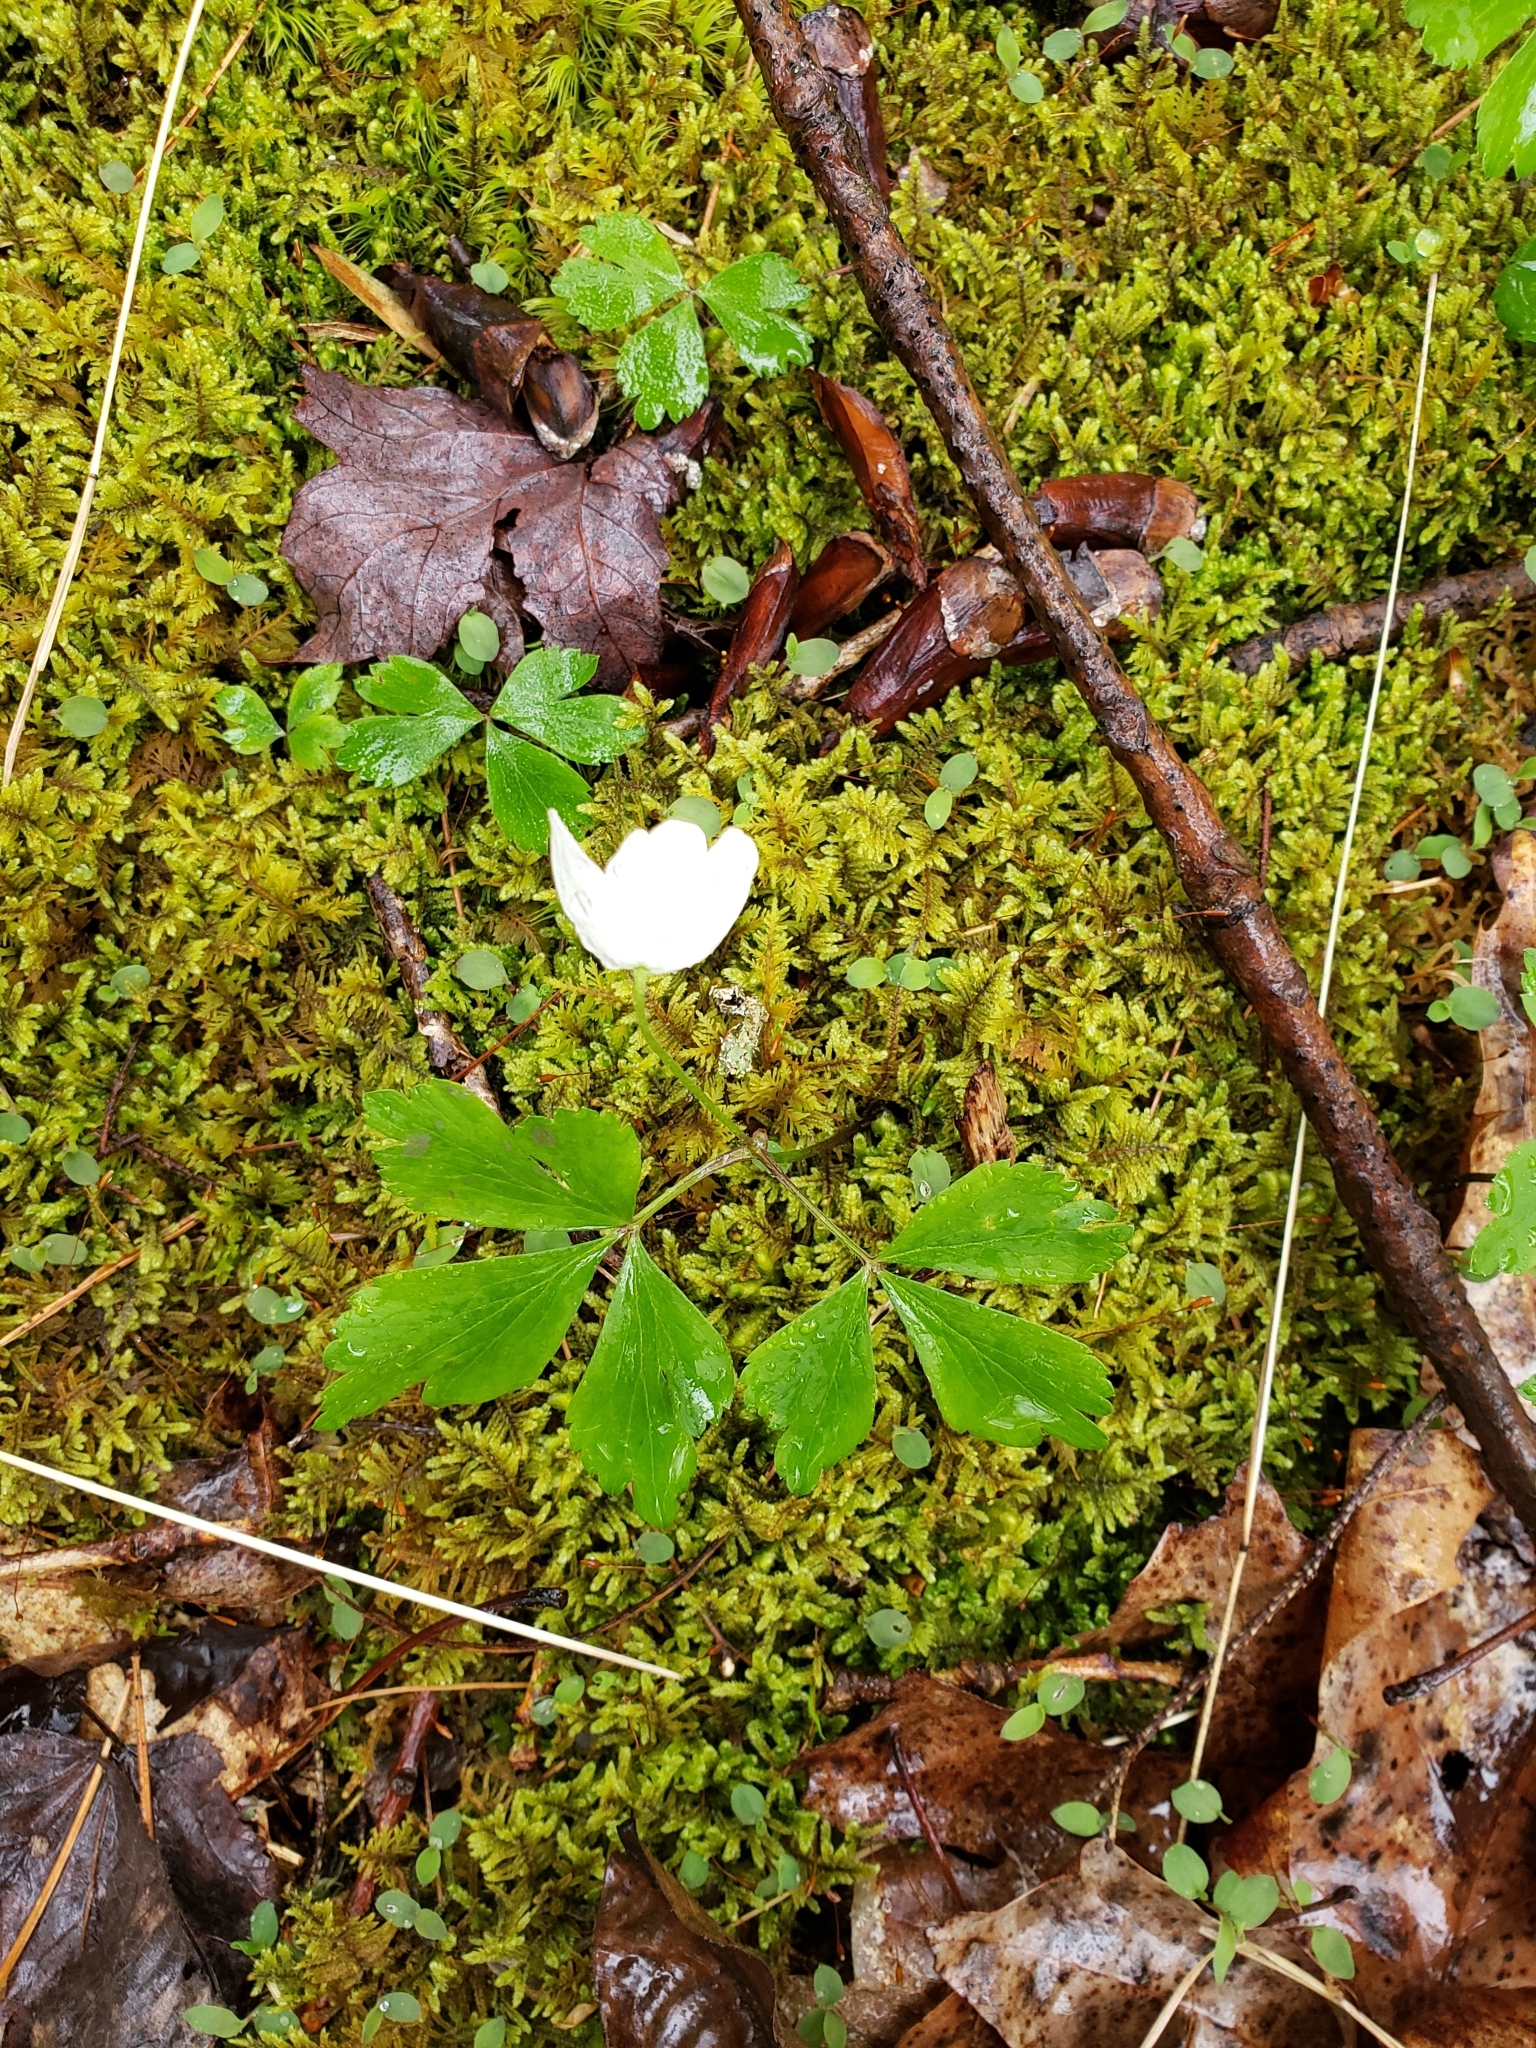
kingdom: Plantae
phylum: Tracheophyta
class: Magnoliopsida
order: Ranunculales
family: Ranunculaceae
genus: Anemone
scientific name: Anemone quinquefolia
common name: Wood anemone
